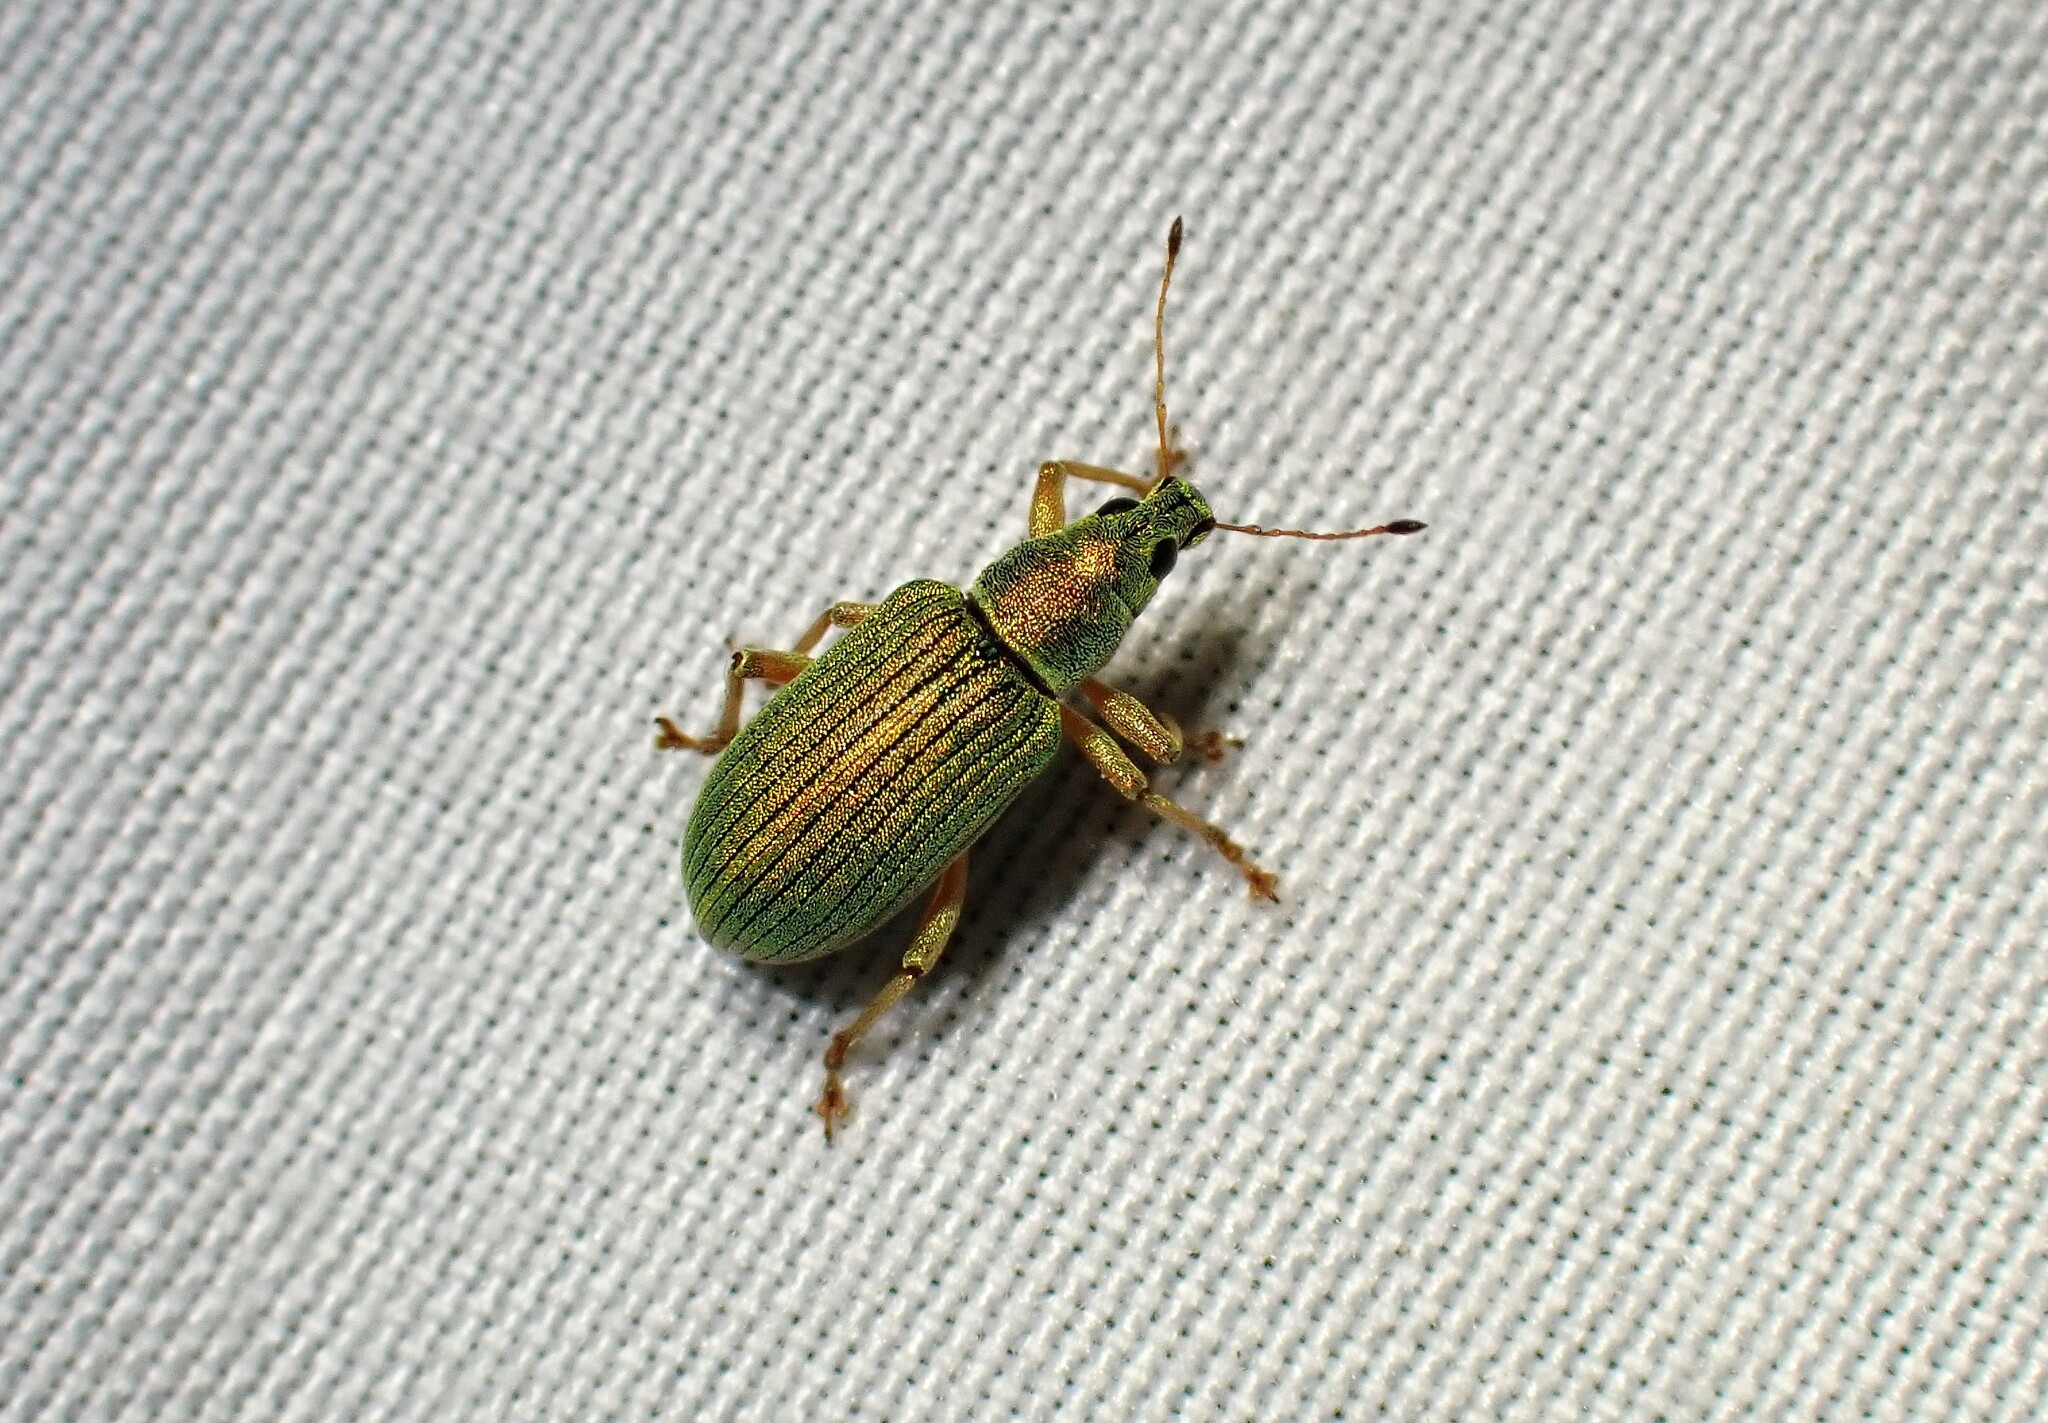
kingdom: Animalia
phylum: Arthropoda
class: Insecta
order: Coleoptera
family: Curculionidae
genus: Polydrusus
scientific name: Polydrusus formosus
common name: Weevil
